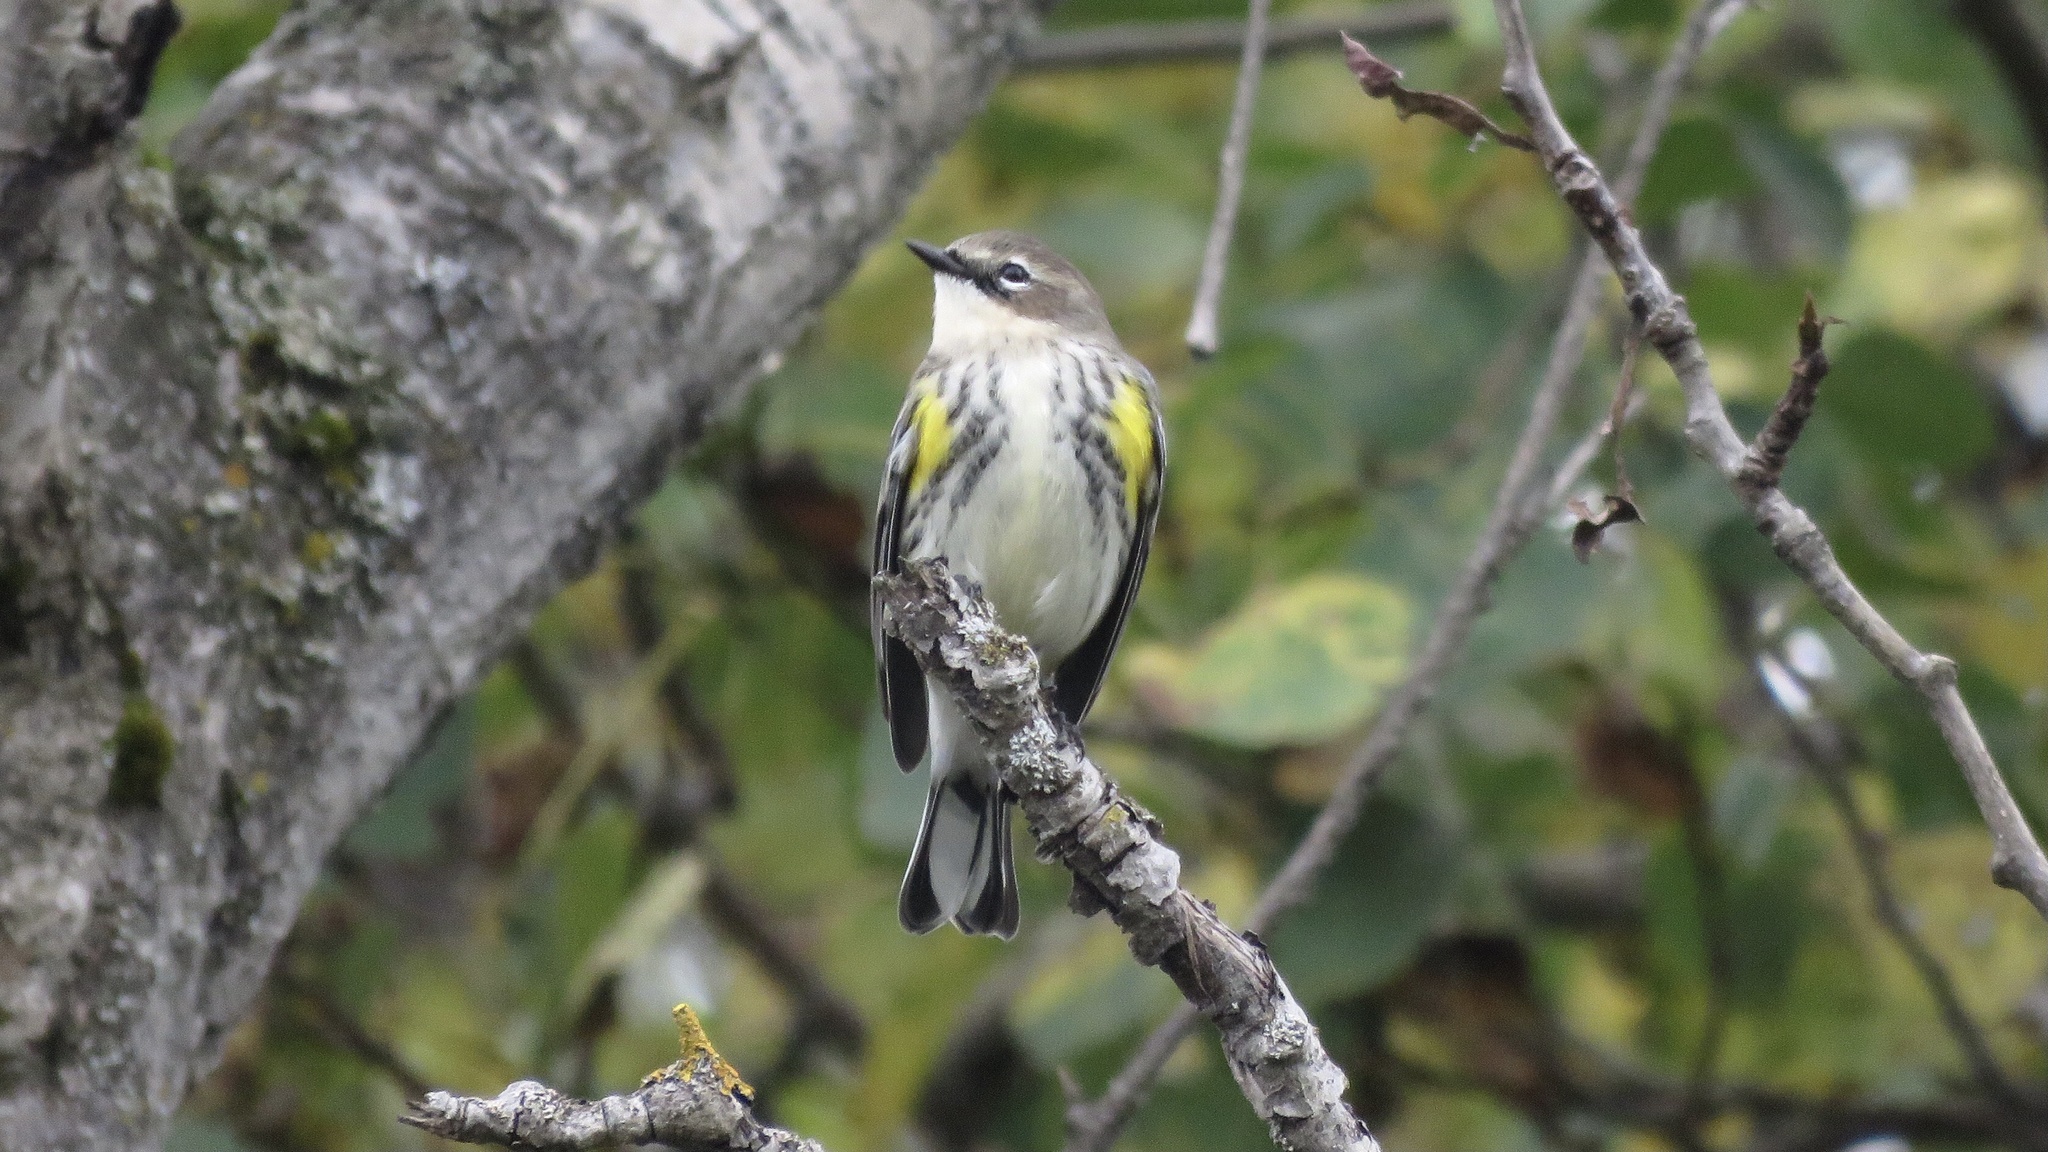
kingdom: Animalia
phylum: Chordata
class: Aves
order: Passeriformes
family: Parulidae
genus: Setophaga
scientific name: Setophaga coronata
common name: Myrtle warbler
